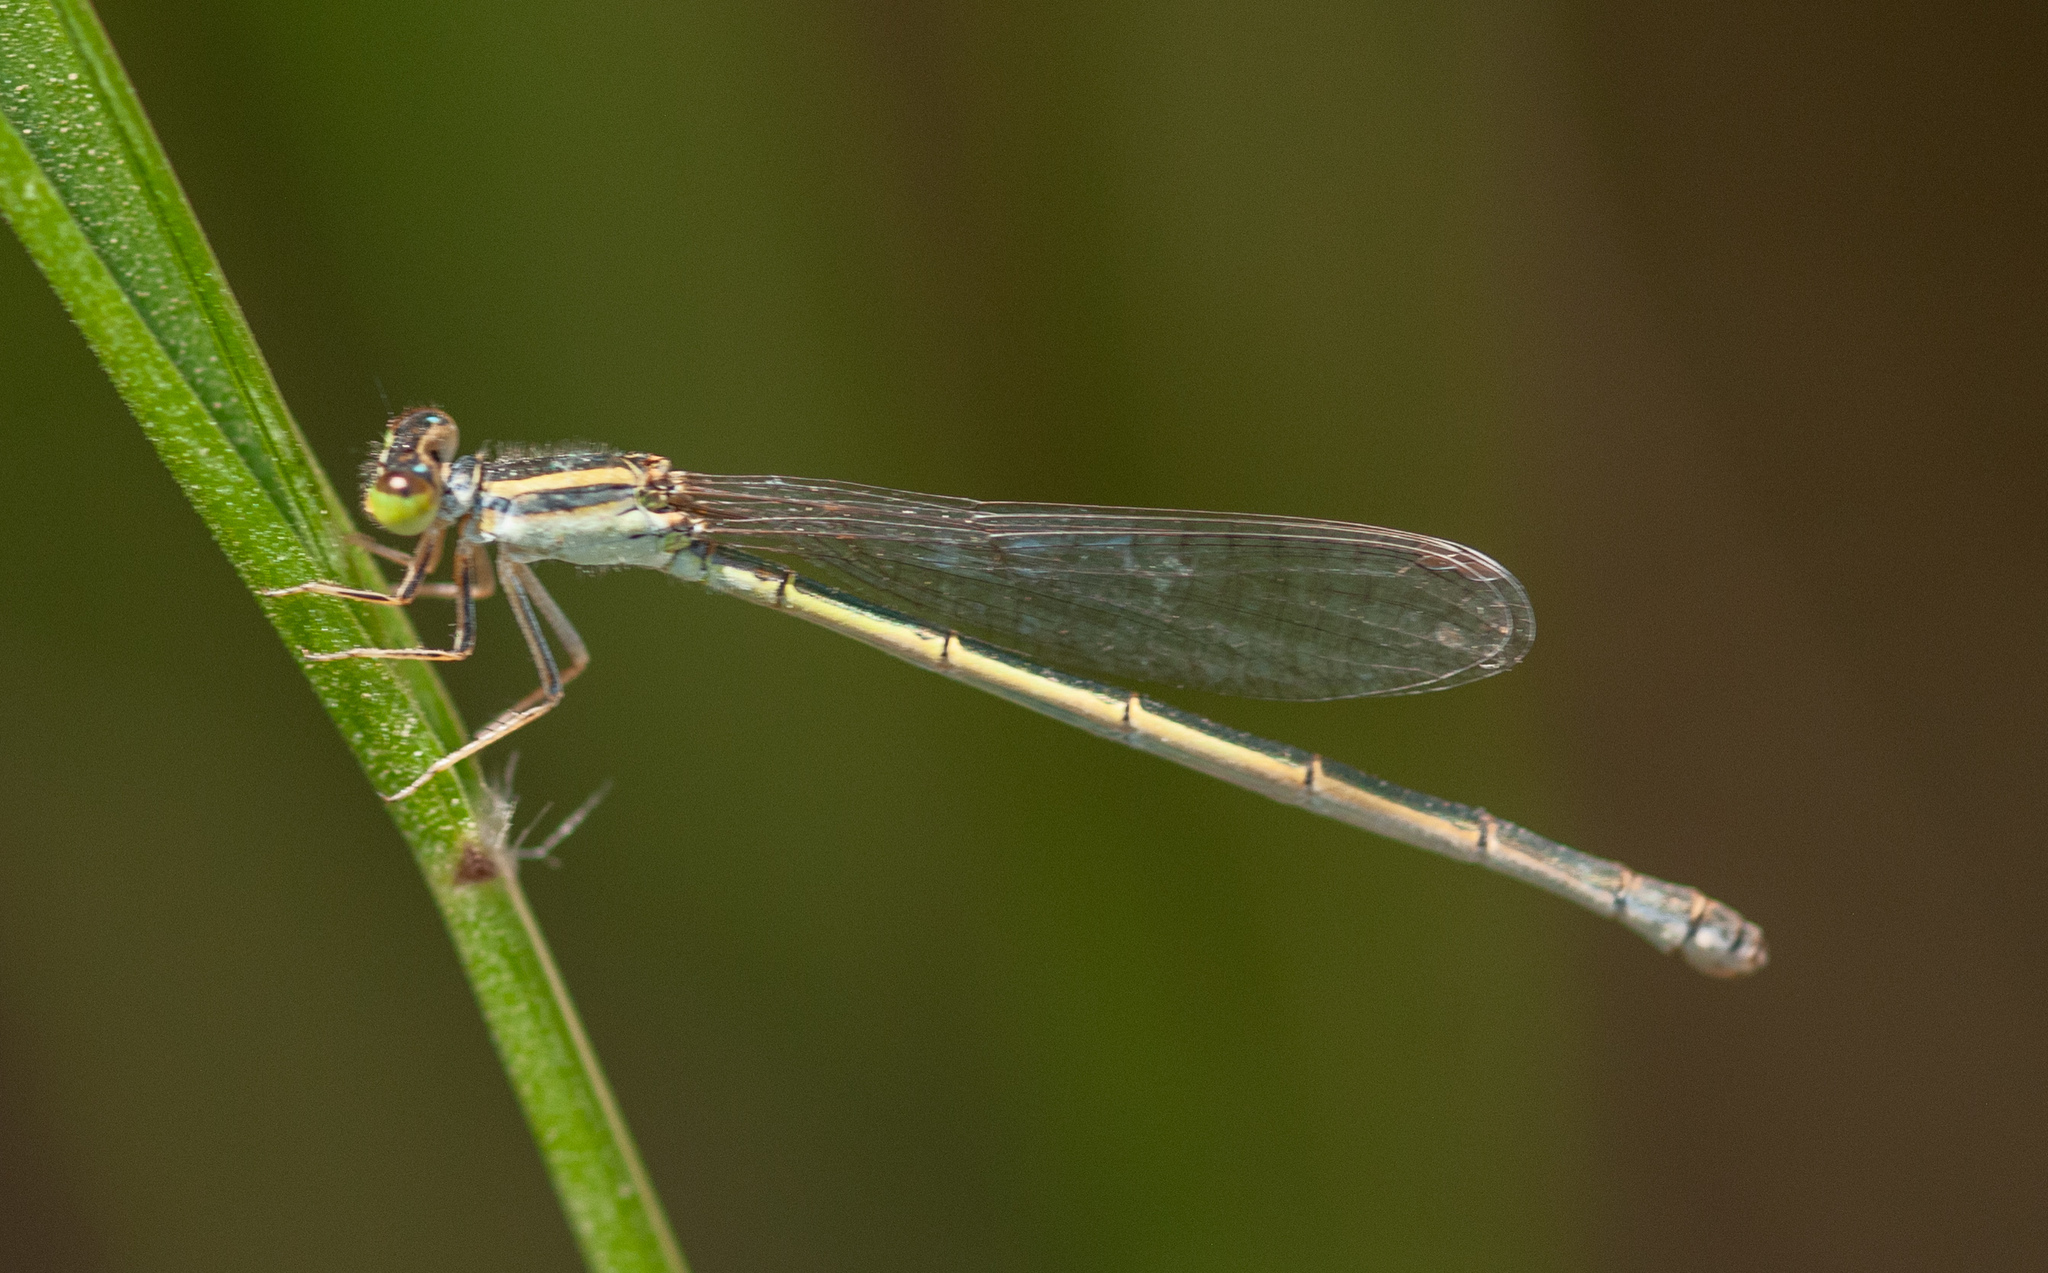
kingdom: Animalia
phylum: Arthropoda
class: Insecta
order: Odonata
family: Coenagrionidae
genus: Ischnura
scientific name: Ischnura aurora
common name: Gossamer damselfly
